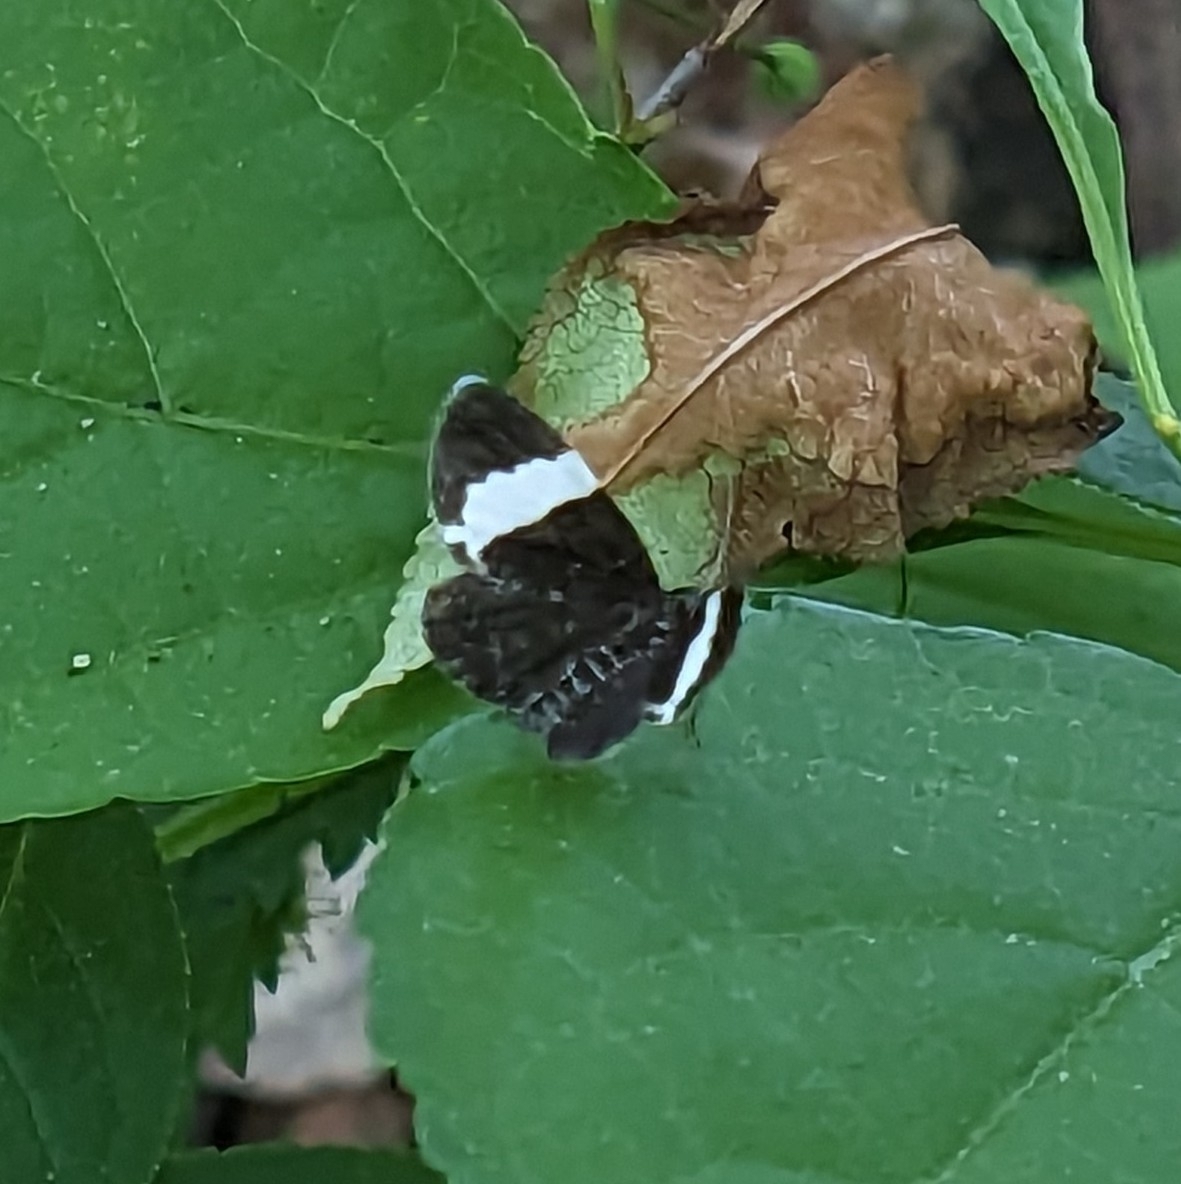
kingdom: Animalia
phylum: Arthropoda
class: Insecta
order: Lepidoptera
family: Geometridae
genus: Trichodezia
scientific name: Trichodezia albovittata
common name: White striped black
